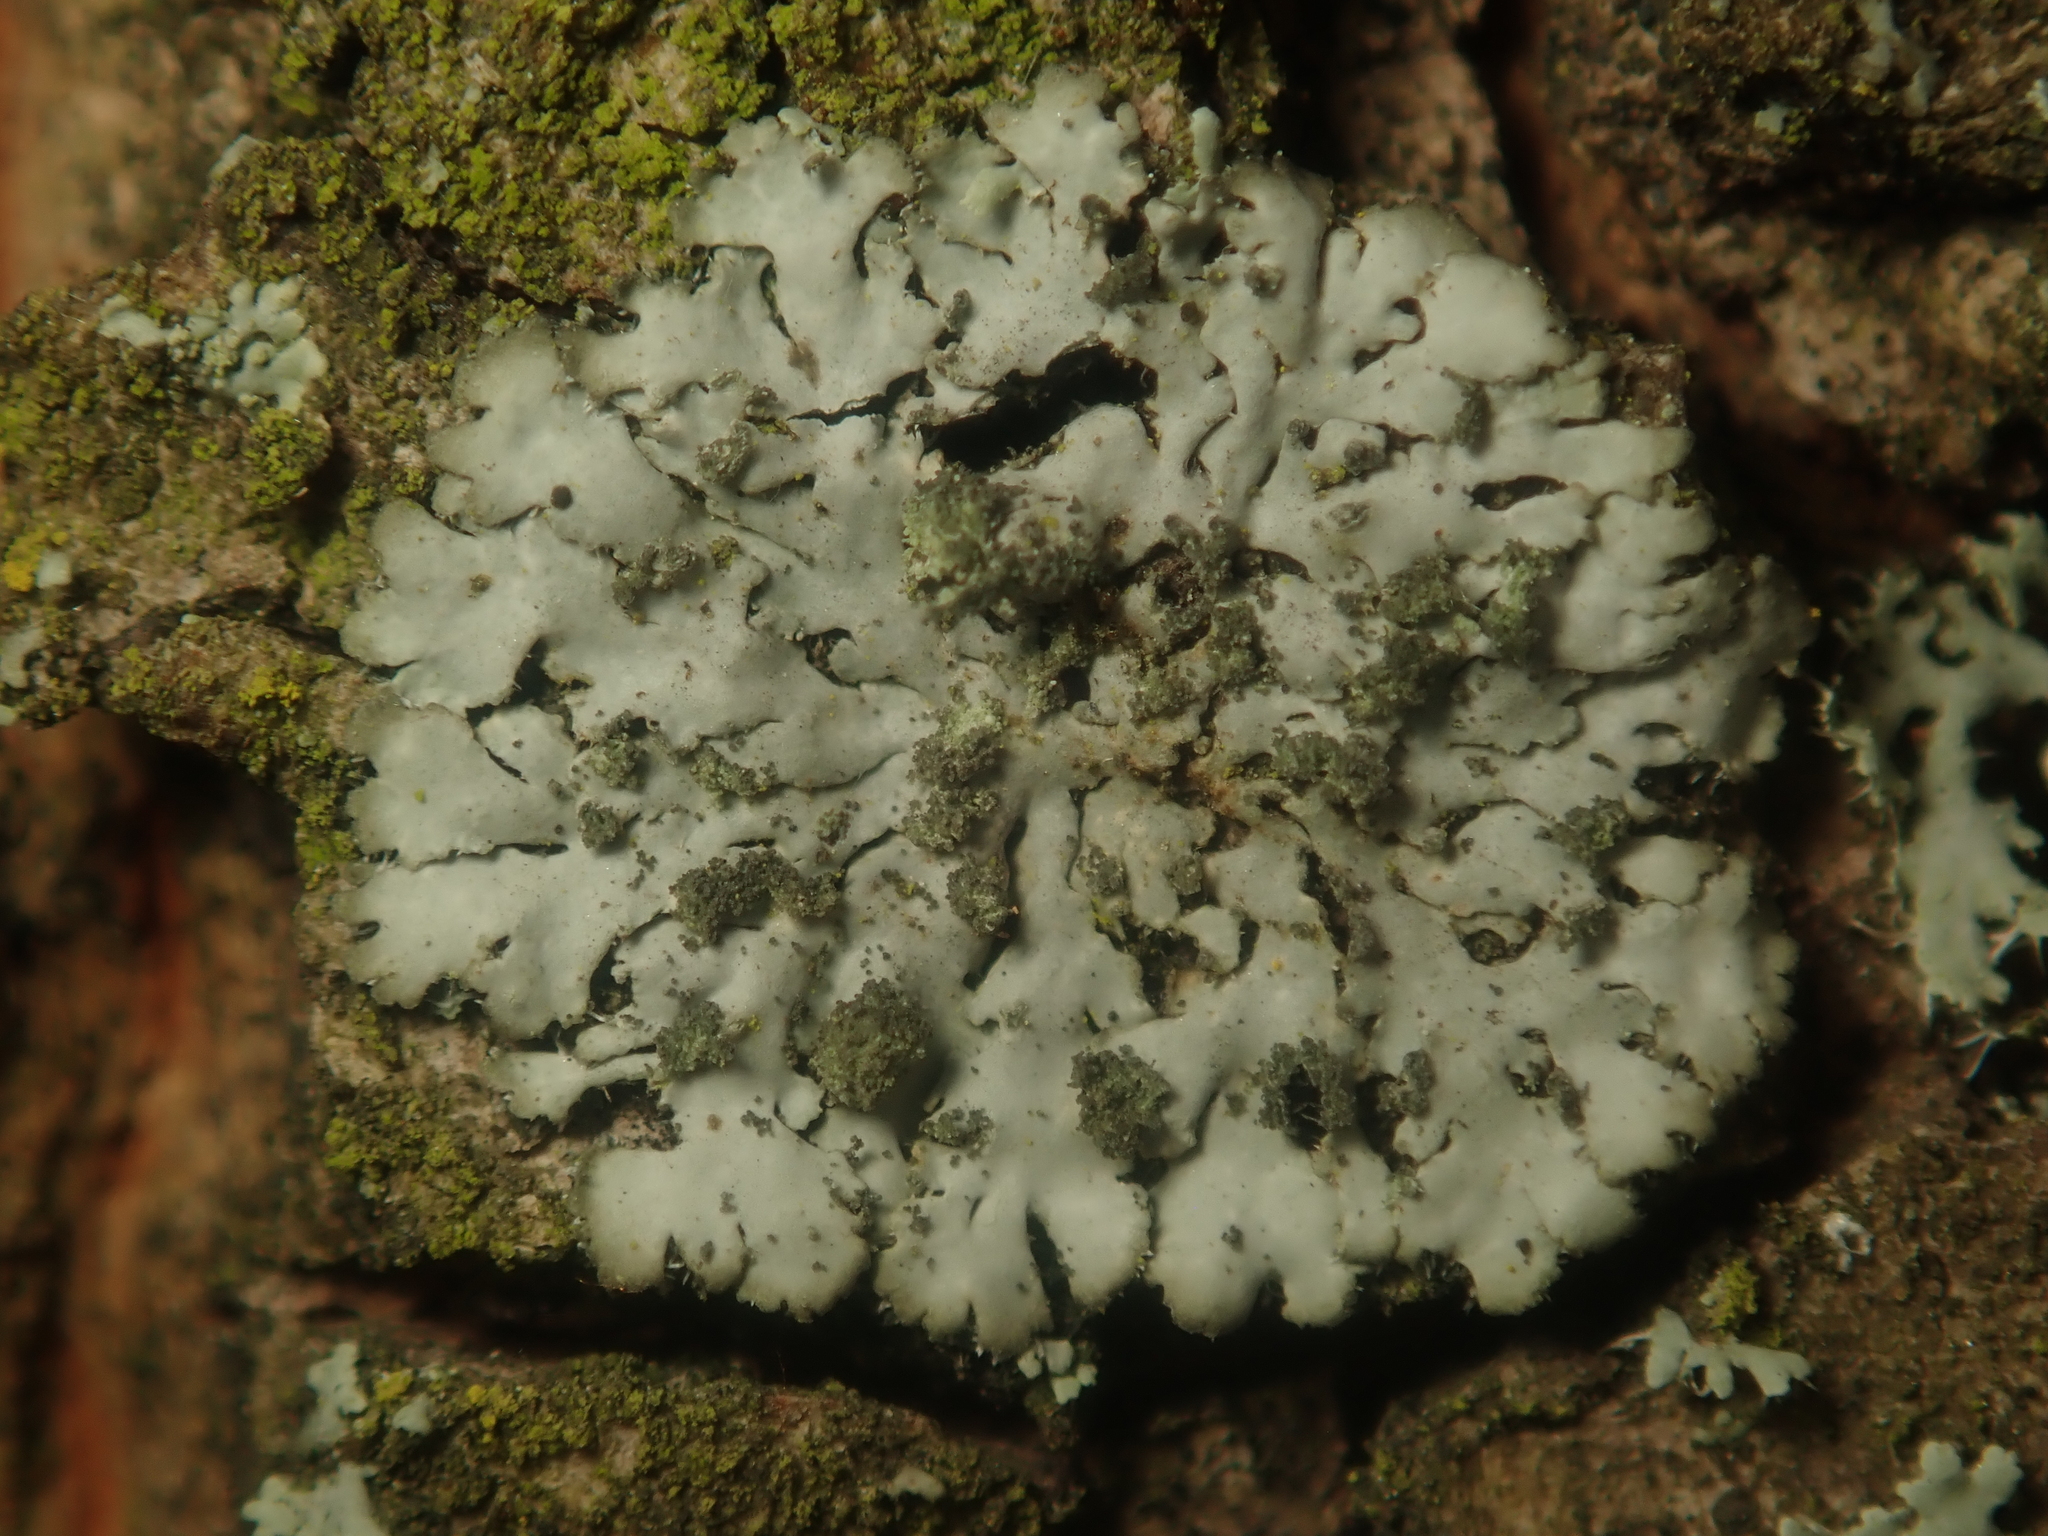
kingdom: Fungi
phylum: Ascomycota
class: Lecanoromycetes
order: Caliciales
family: Physciaceae
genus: Phaeophyscia
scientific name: Phaeophyscia orbicularis
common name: Mealy shadow lichen
